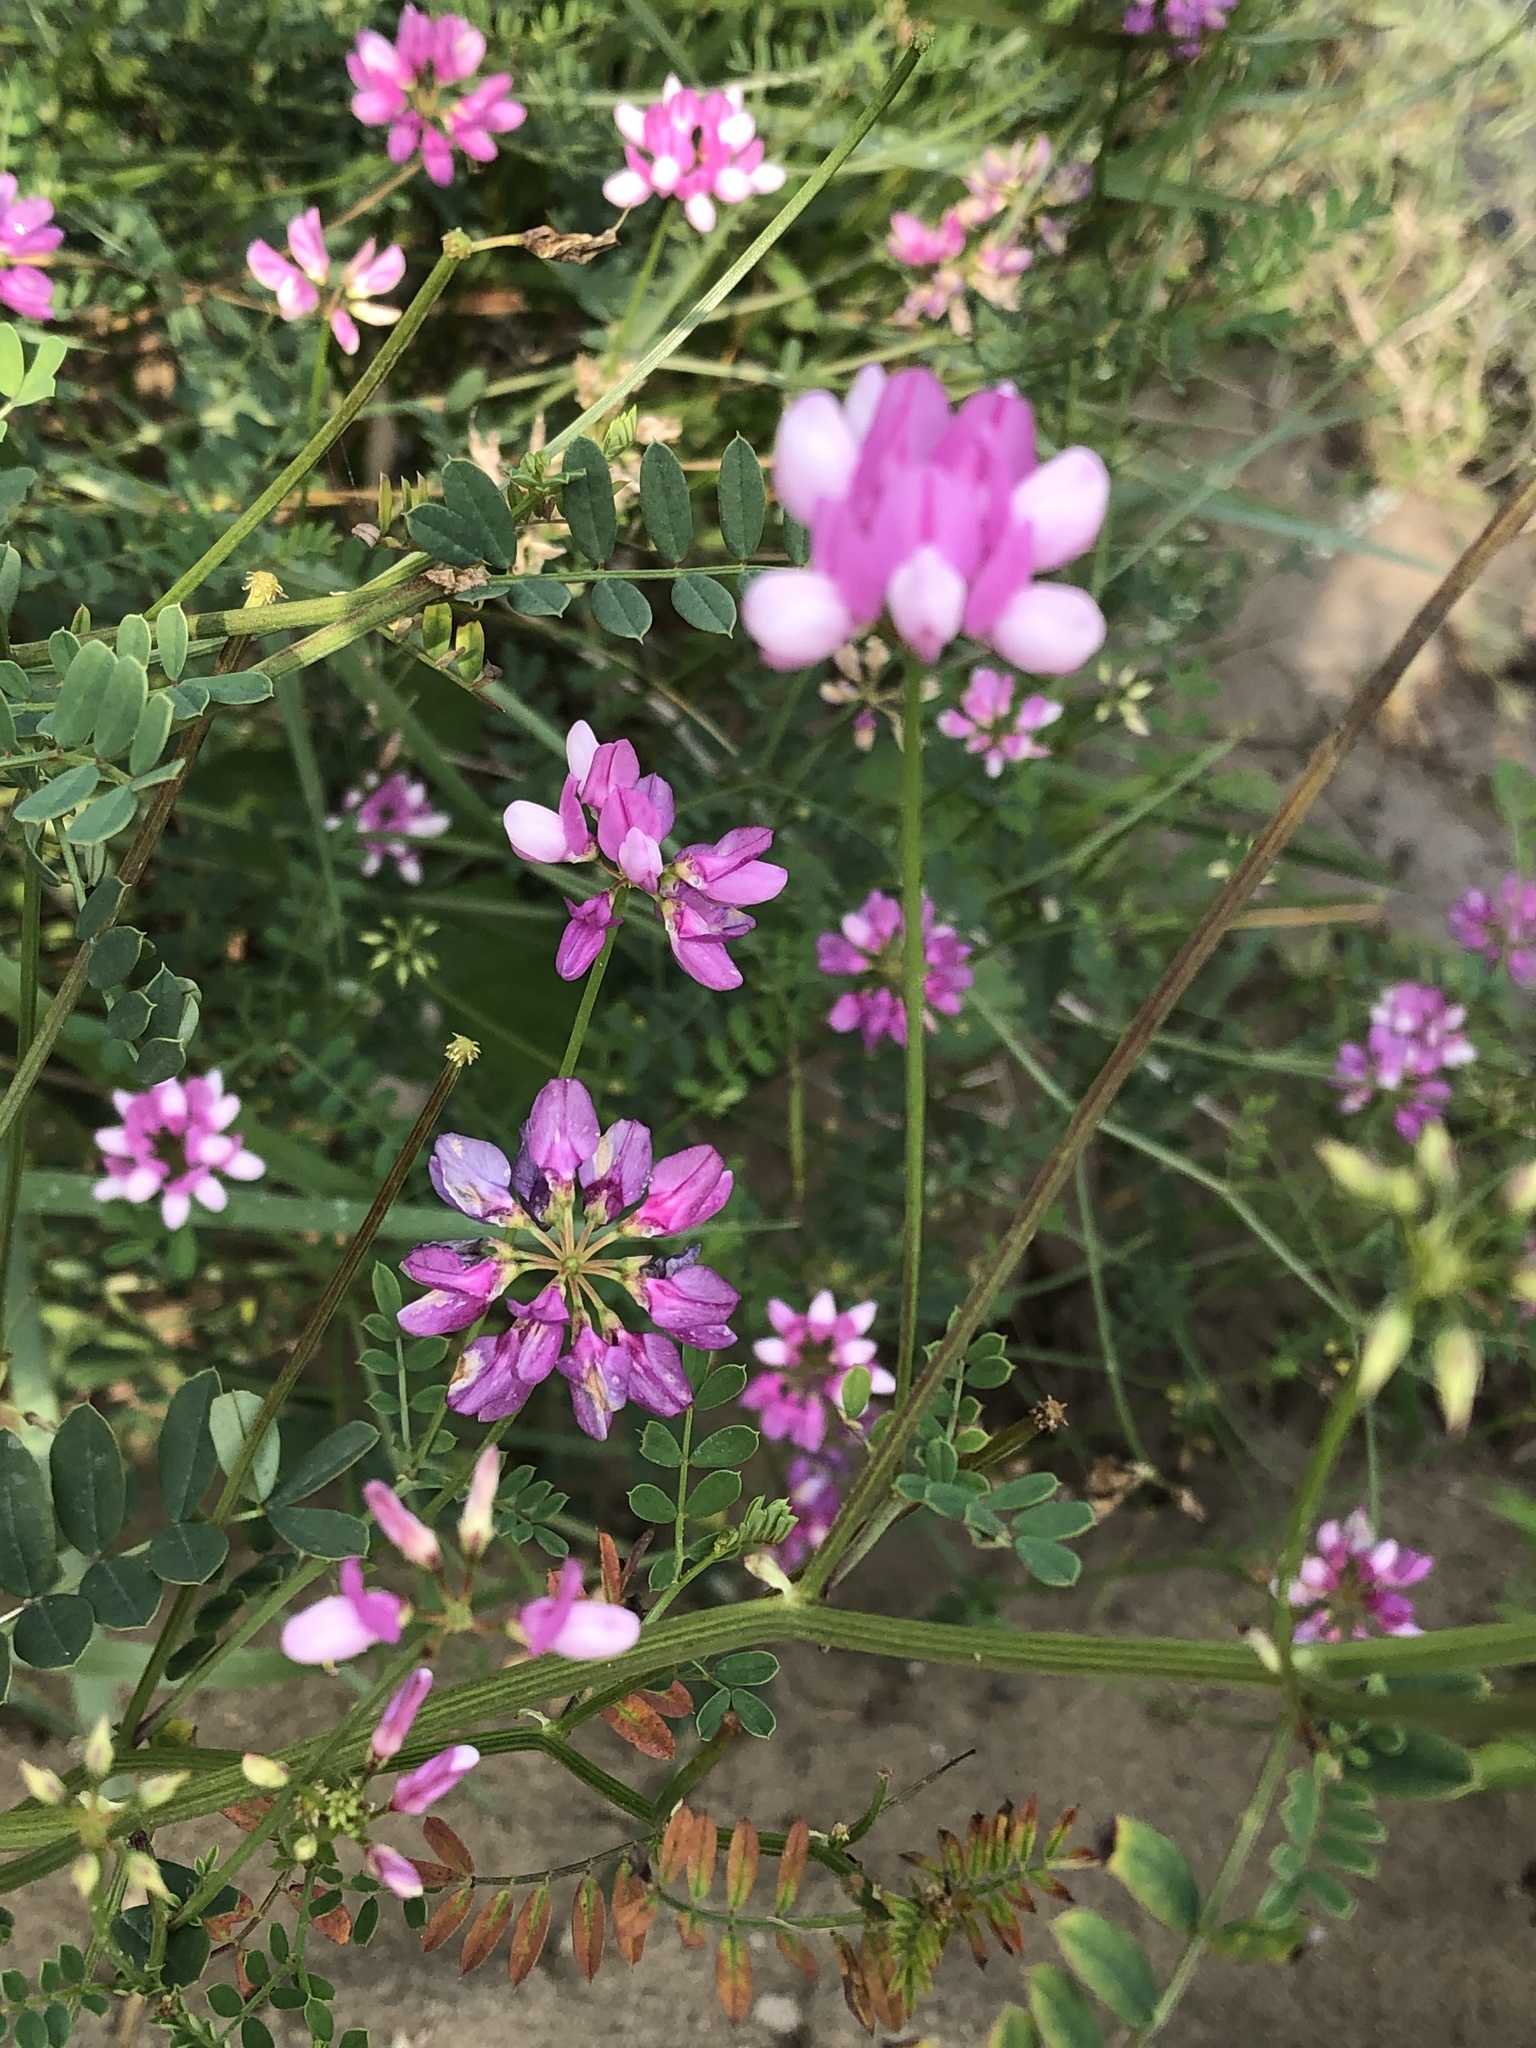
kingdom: Plantae
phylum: Tracheophyta
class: Magnoliopsida
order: Fabales
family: Fabaceae
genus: Coronilla
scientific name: Coronilla varia
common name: Crownvetch
